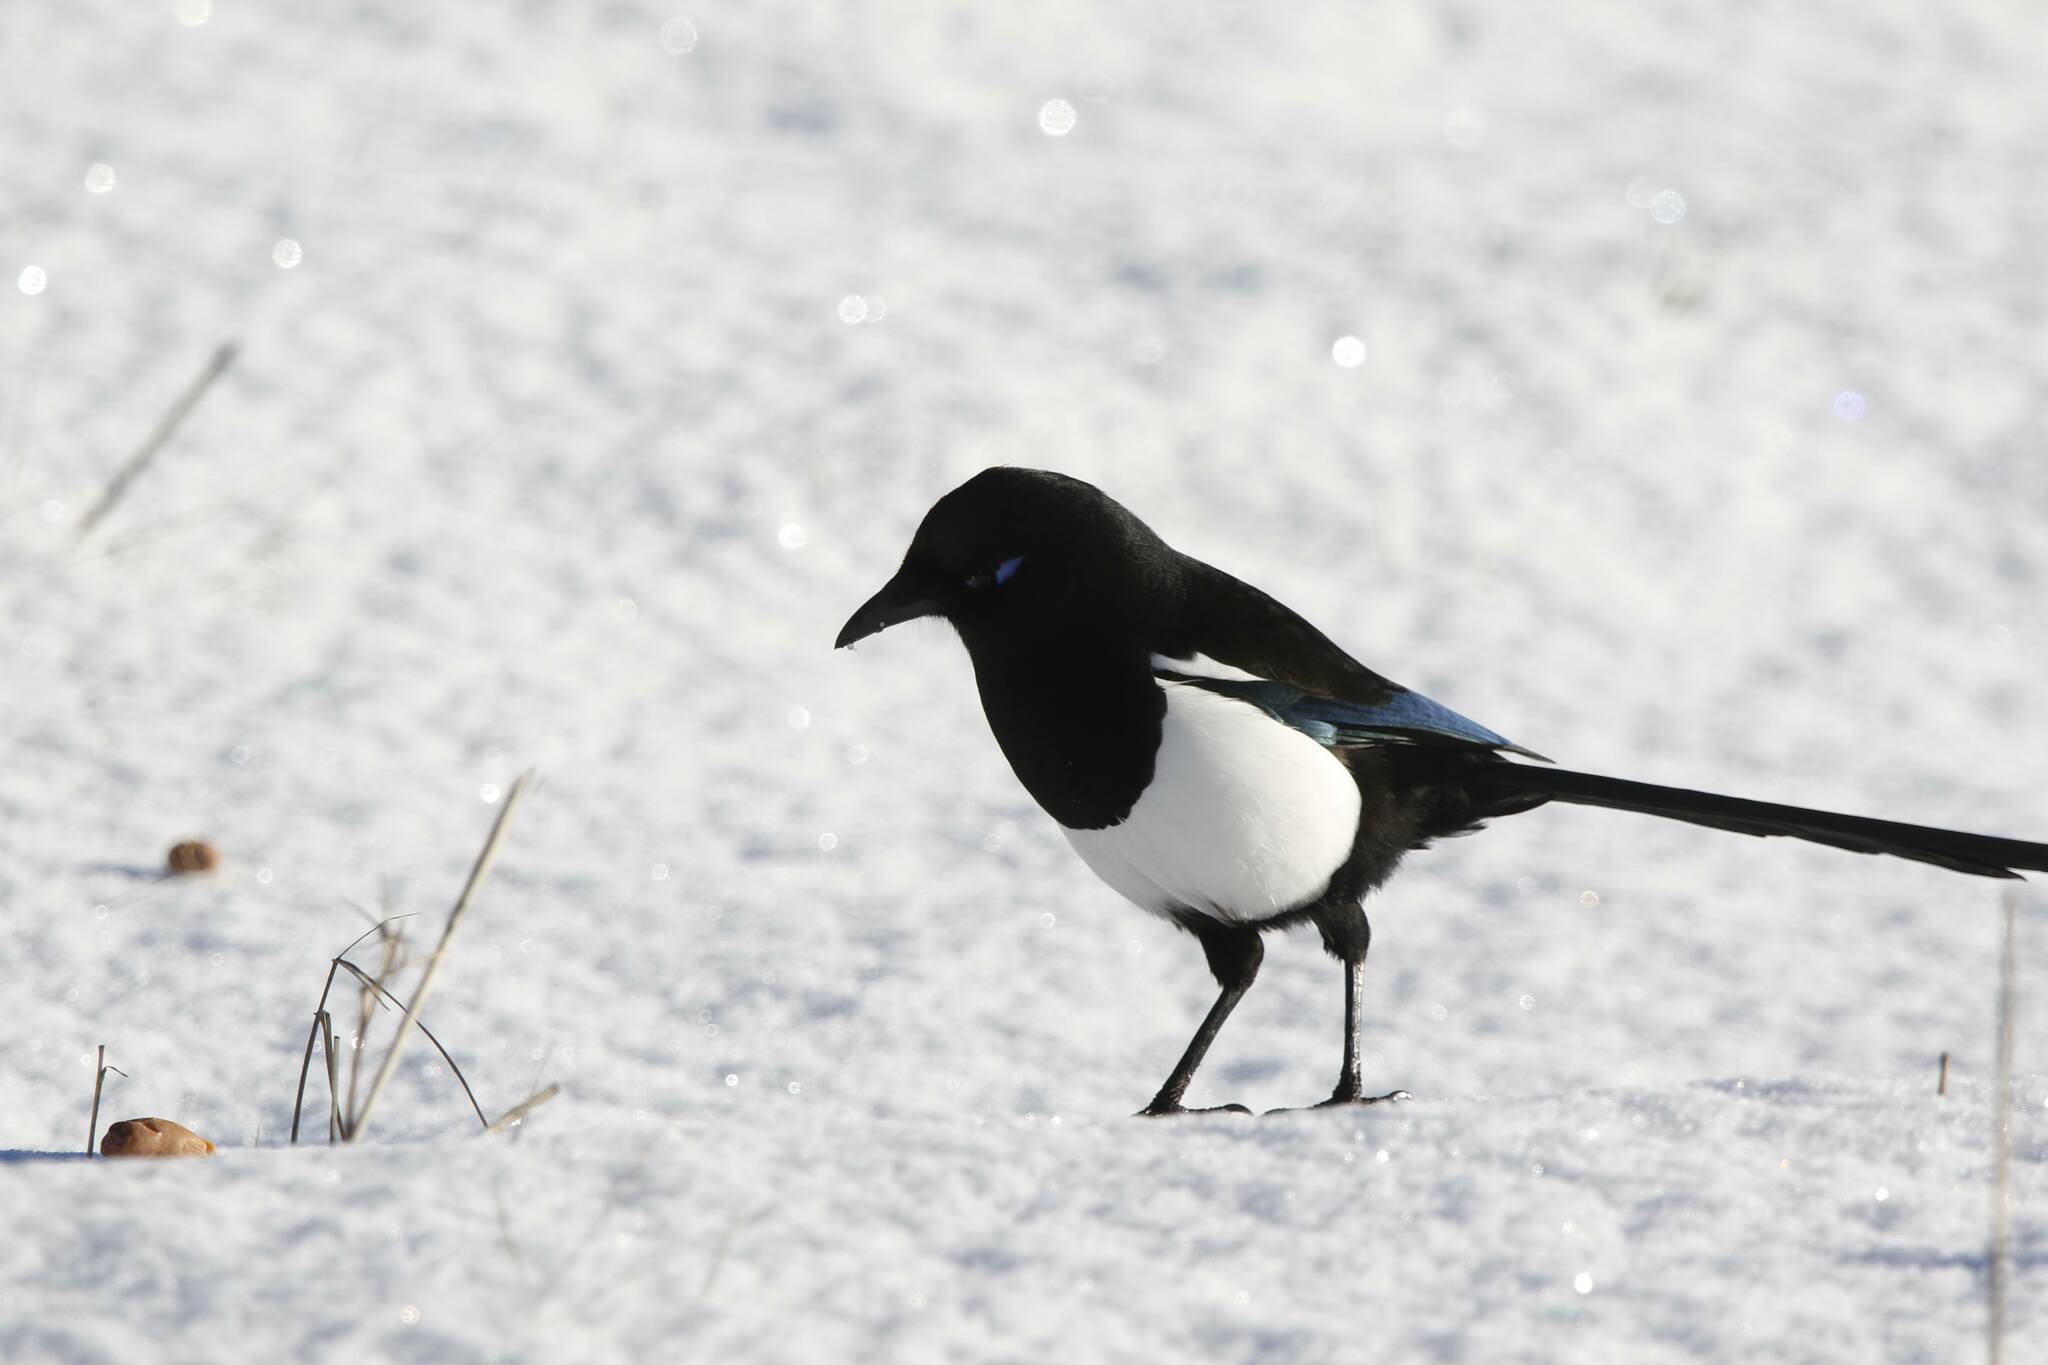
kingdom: Animalia
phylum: Chordata
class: Aves
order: Passeriformes
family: Corvidae
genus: Pica
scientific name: Pica mauritanica
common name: Maghreb magpie
